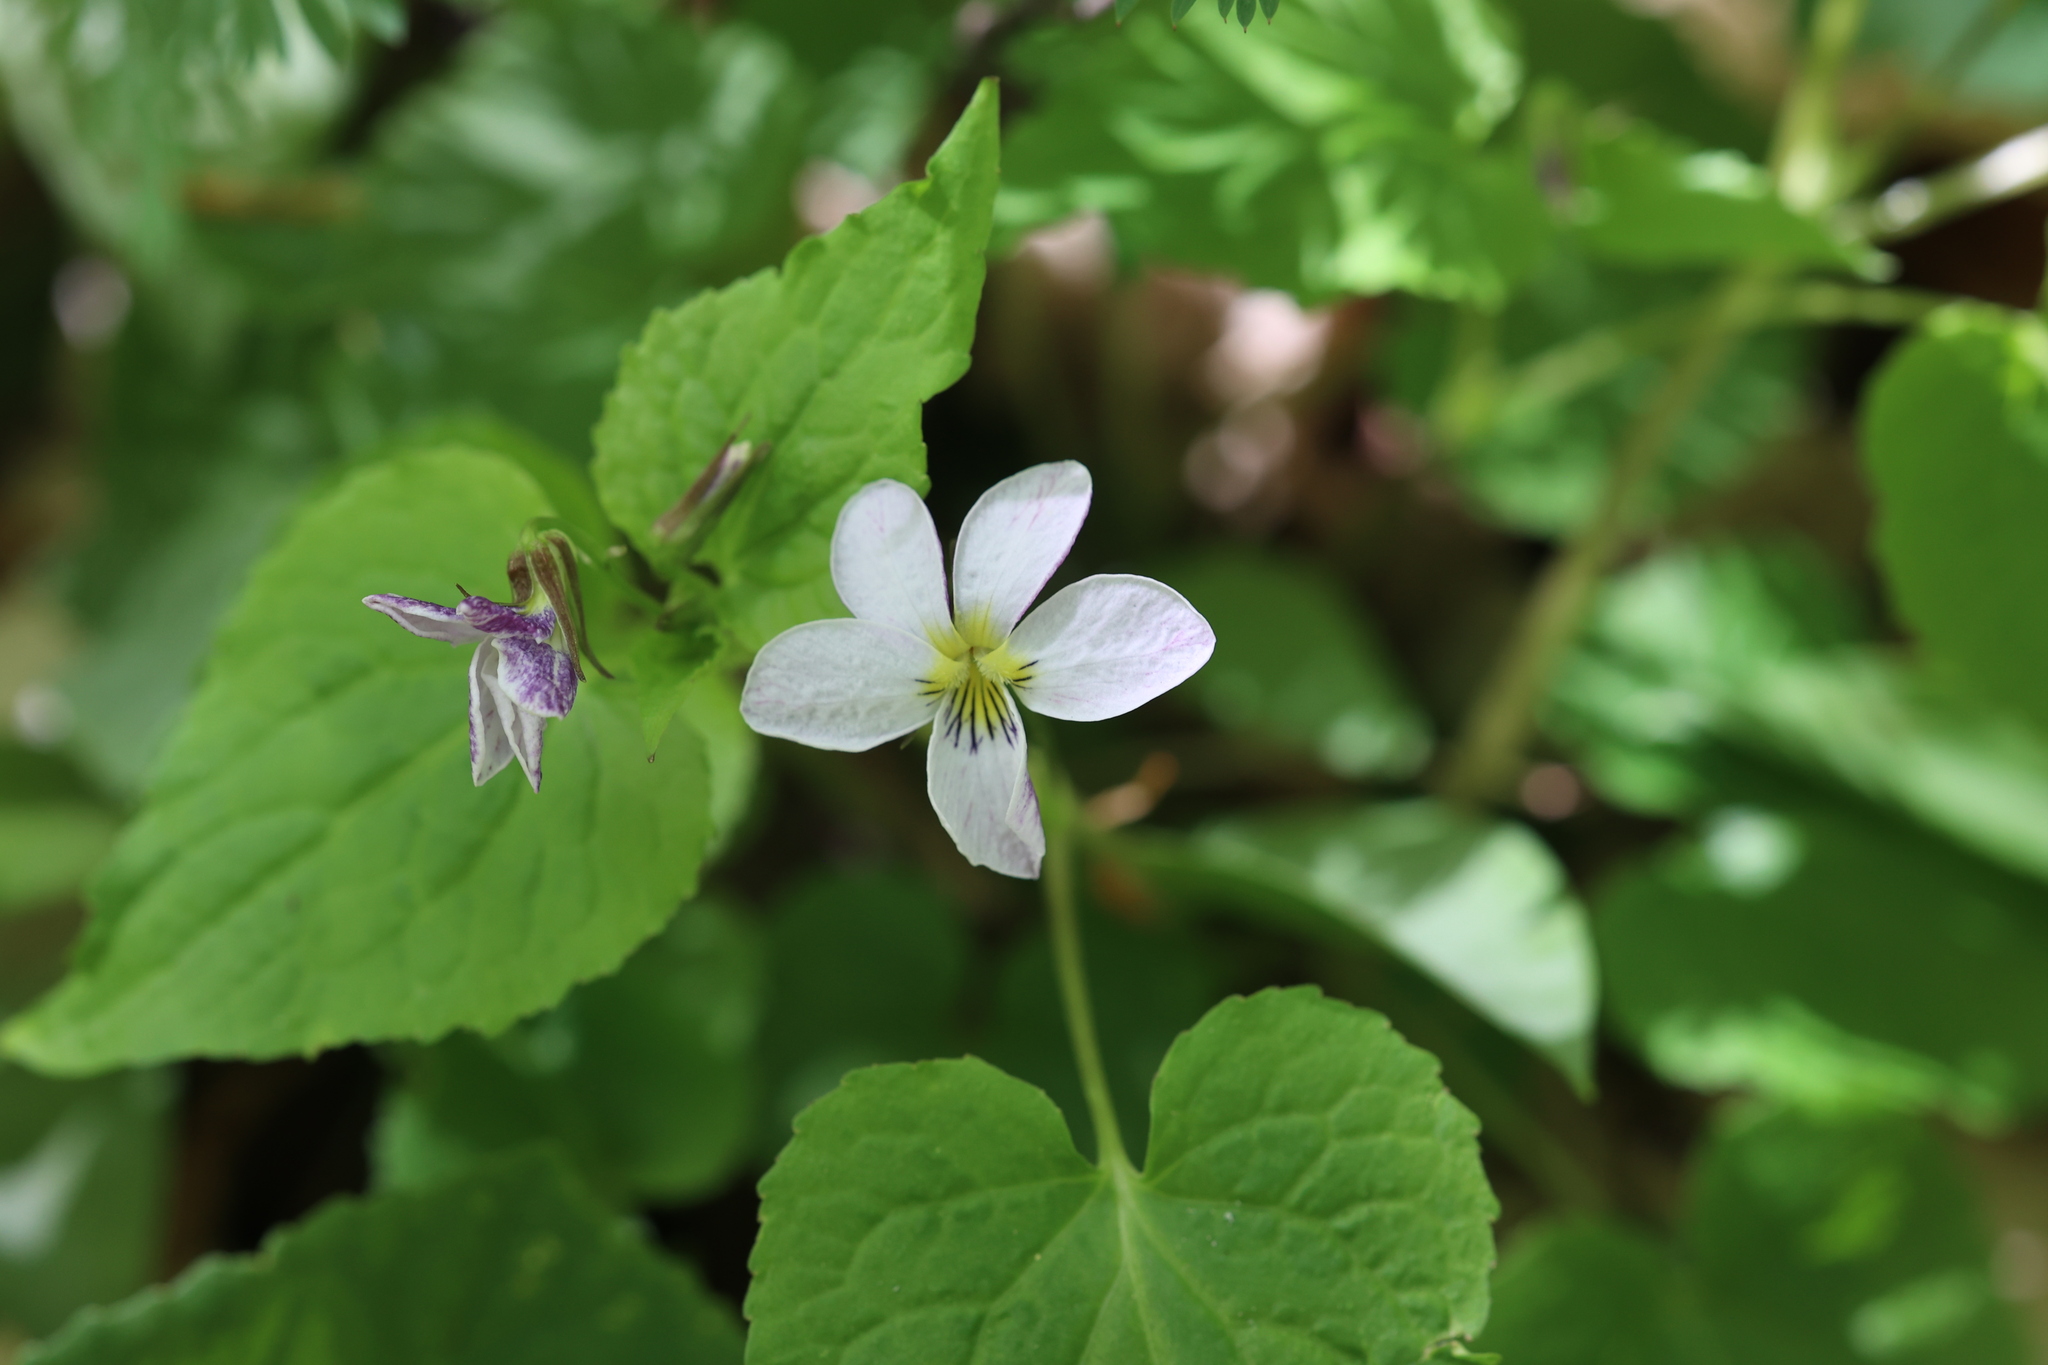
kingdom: Plantae
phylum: Tracheophyta
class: Magnoliopsida
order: Malpighiales
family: Violaceae
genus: Viola
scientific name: Viola canadensis
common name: Canada violet
